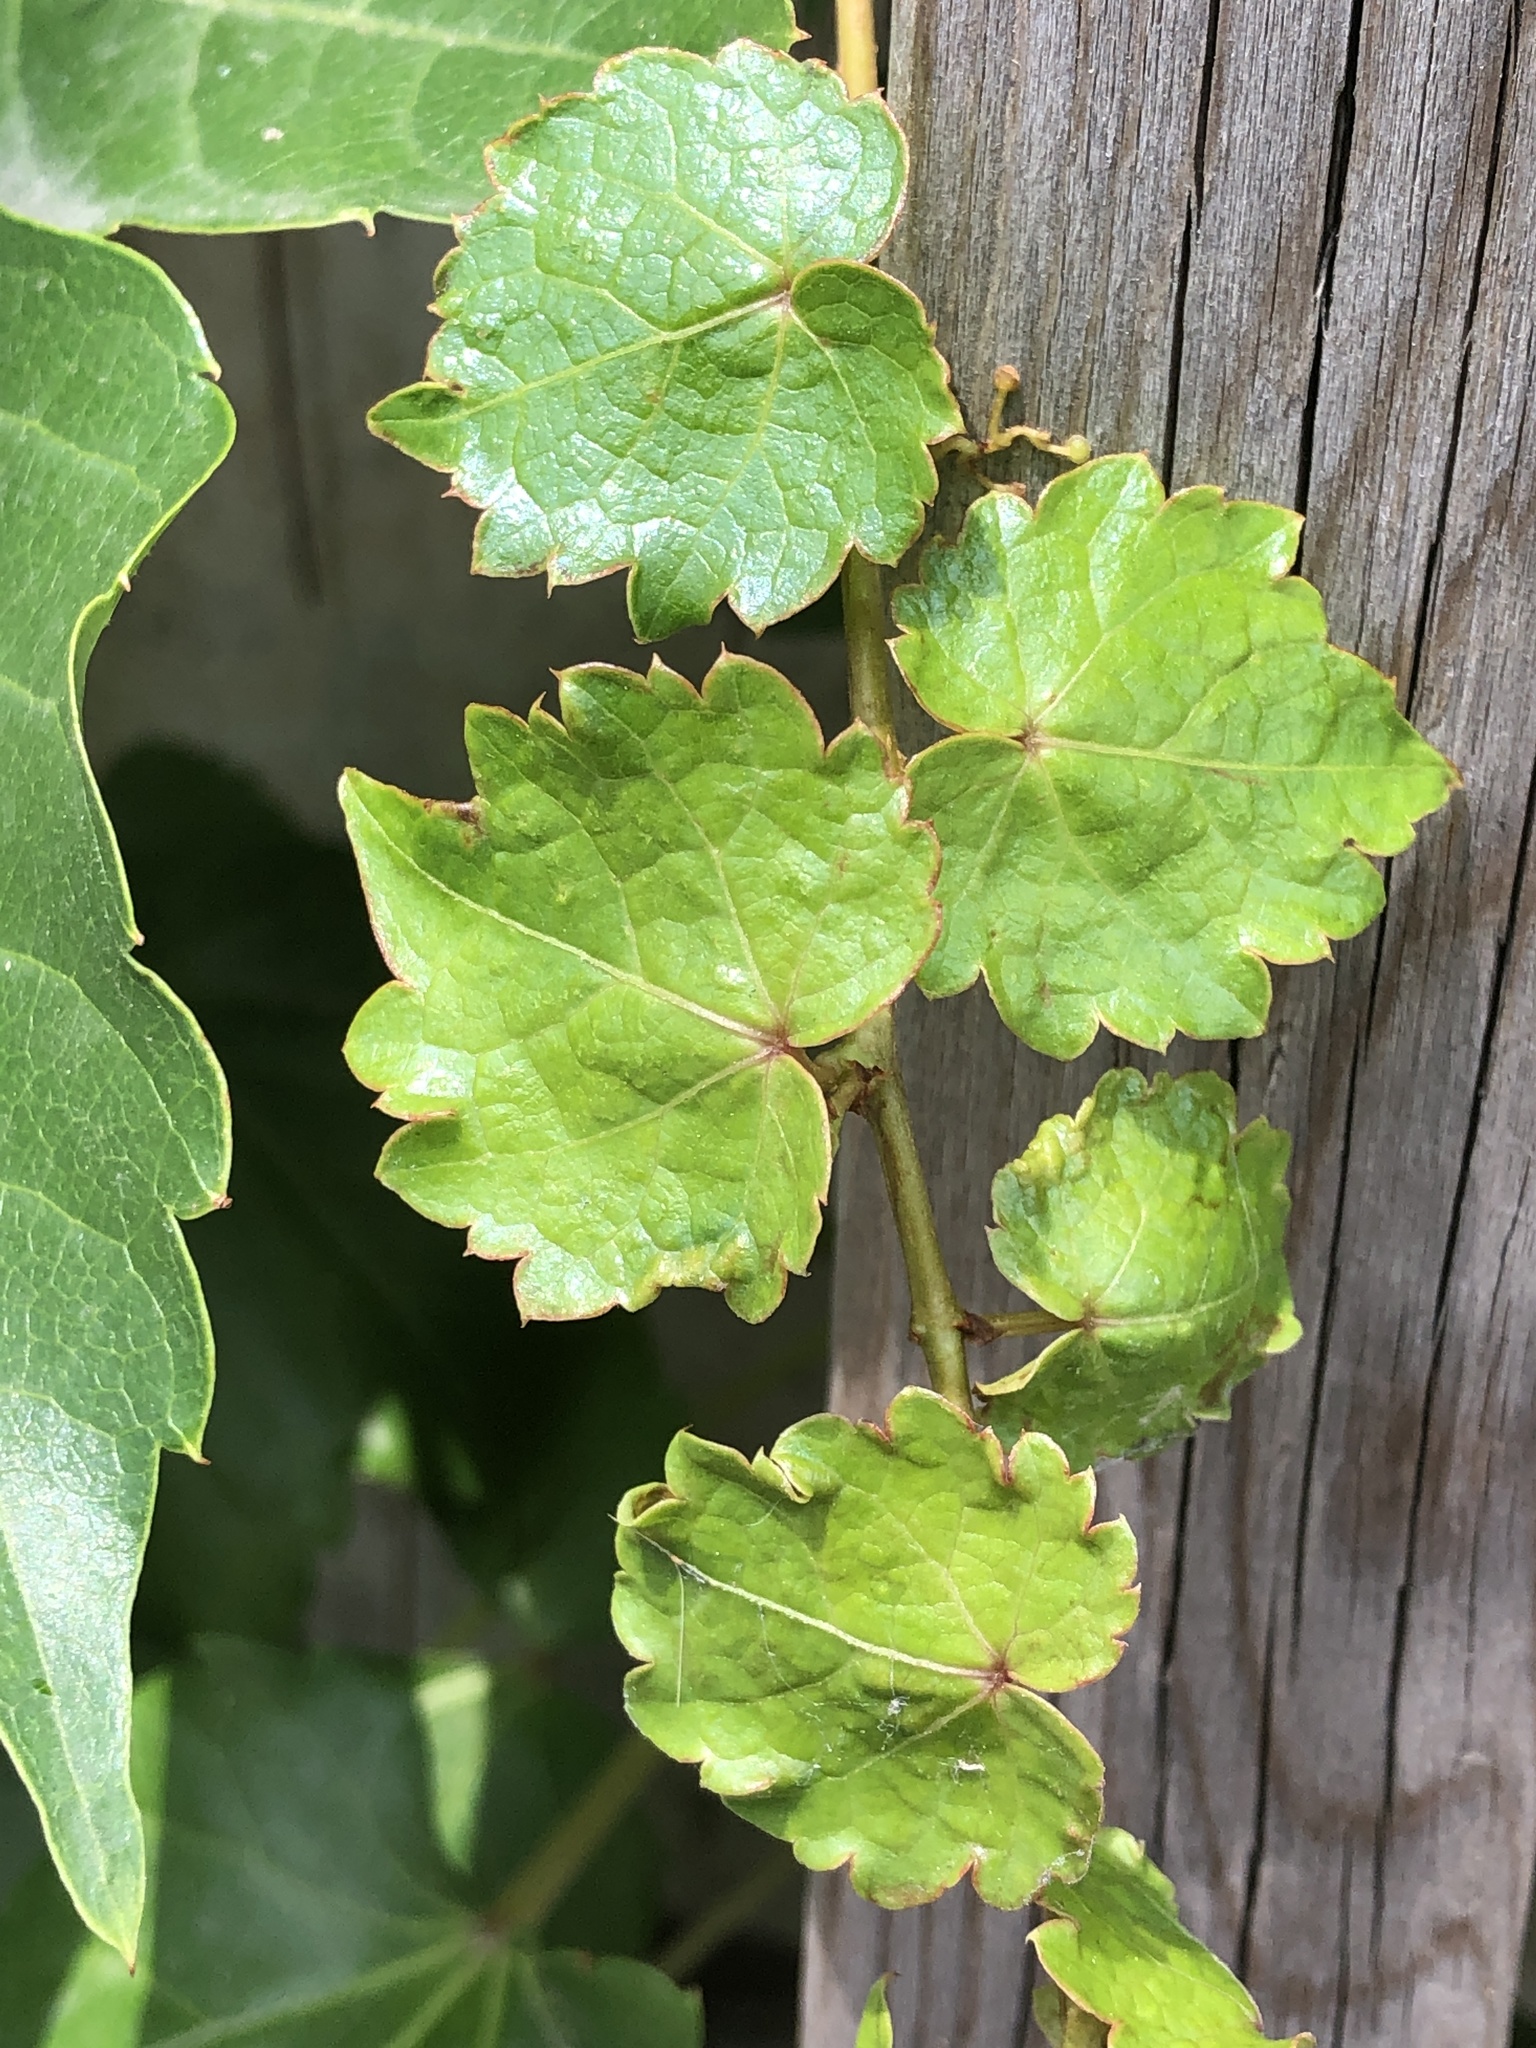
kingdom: Plantae
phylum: Tracheophyta
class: Magnoliopsida
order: Vitales
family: Vitaceae
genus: Parthenocissus
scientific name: Parthenocissus tricuspidata
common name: Boston ivy
